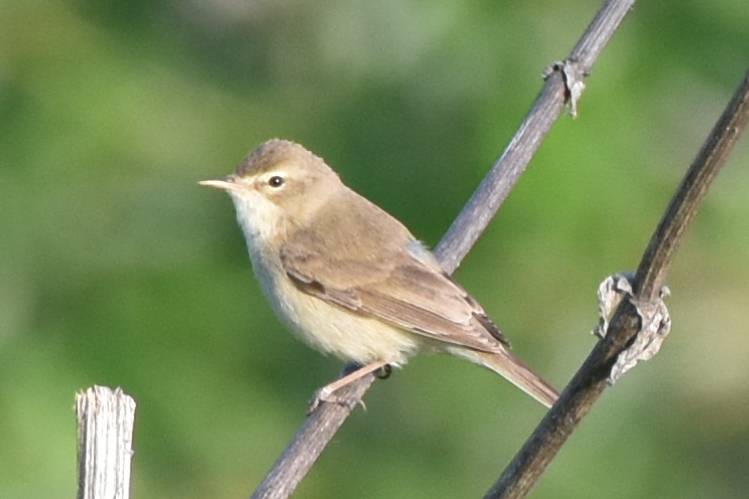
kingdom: Animalia
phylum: Chordata
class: Aves
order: Passeriformes
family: Acrocephalidae
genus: Iduna
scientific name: Iduna caligata
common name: Booted warbler
